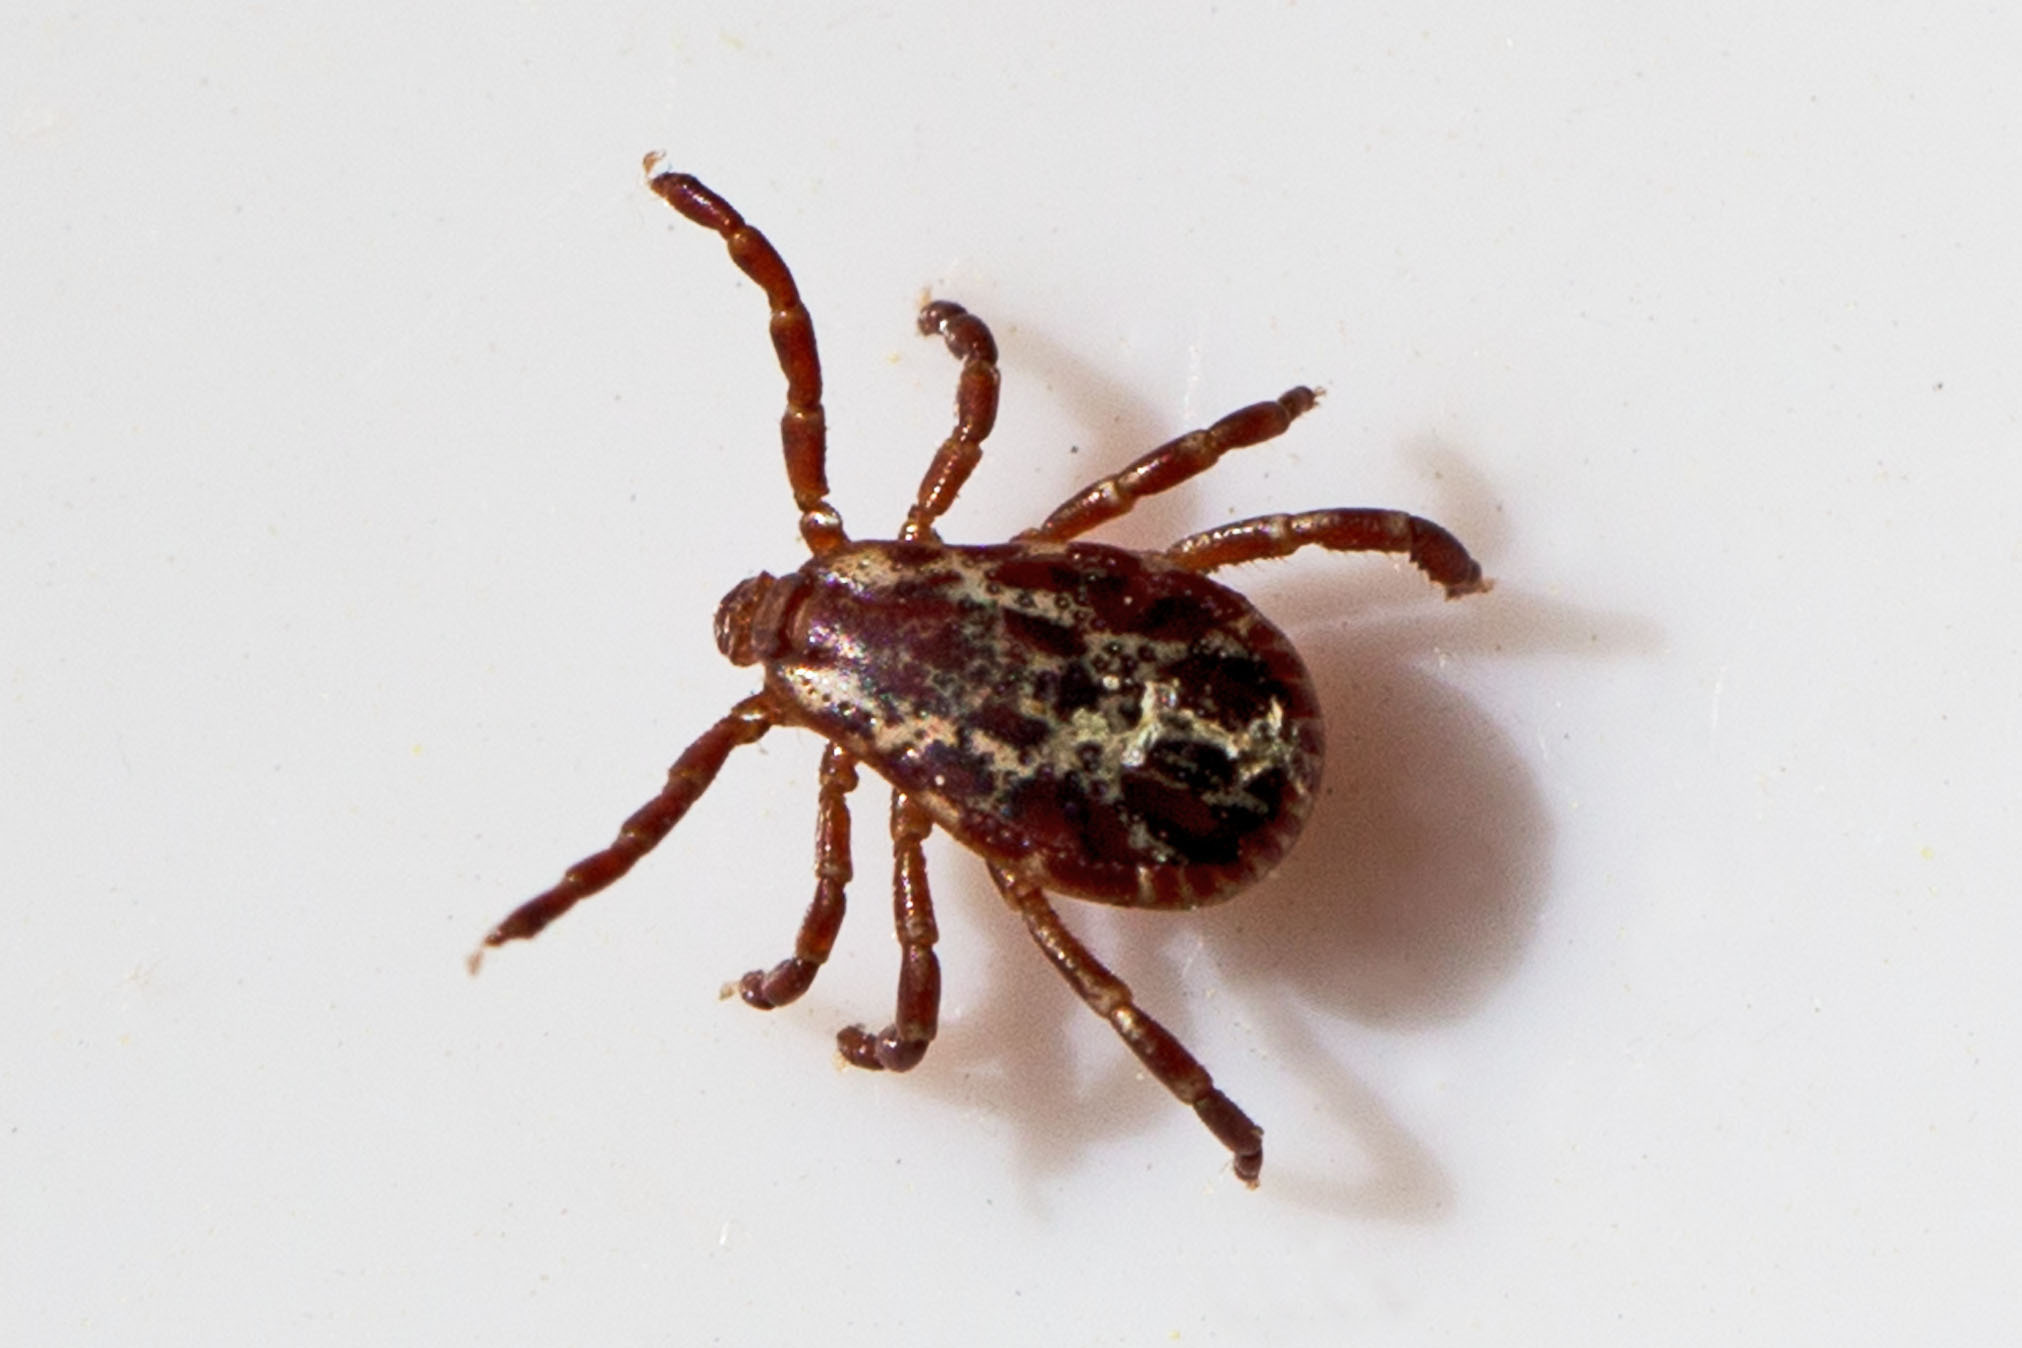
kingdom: Animalia
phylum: Arthropoda
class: Arachnida
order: Ixodida
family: Ixodidae
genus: Dermacentor
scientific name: Dermacentor variabilis
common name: American dog tick
